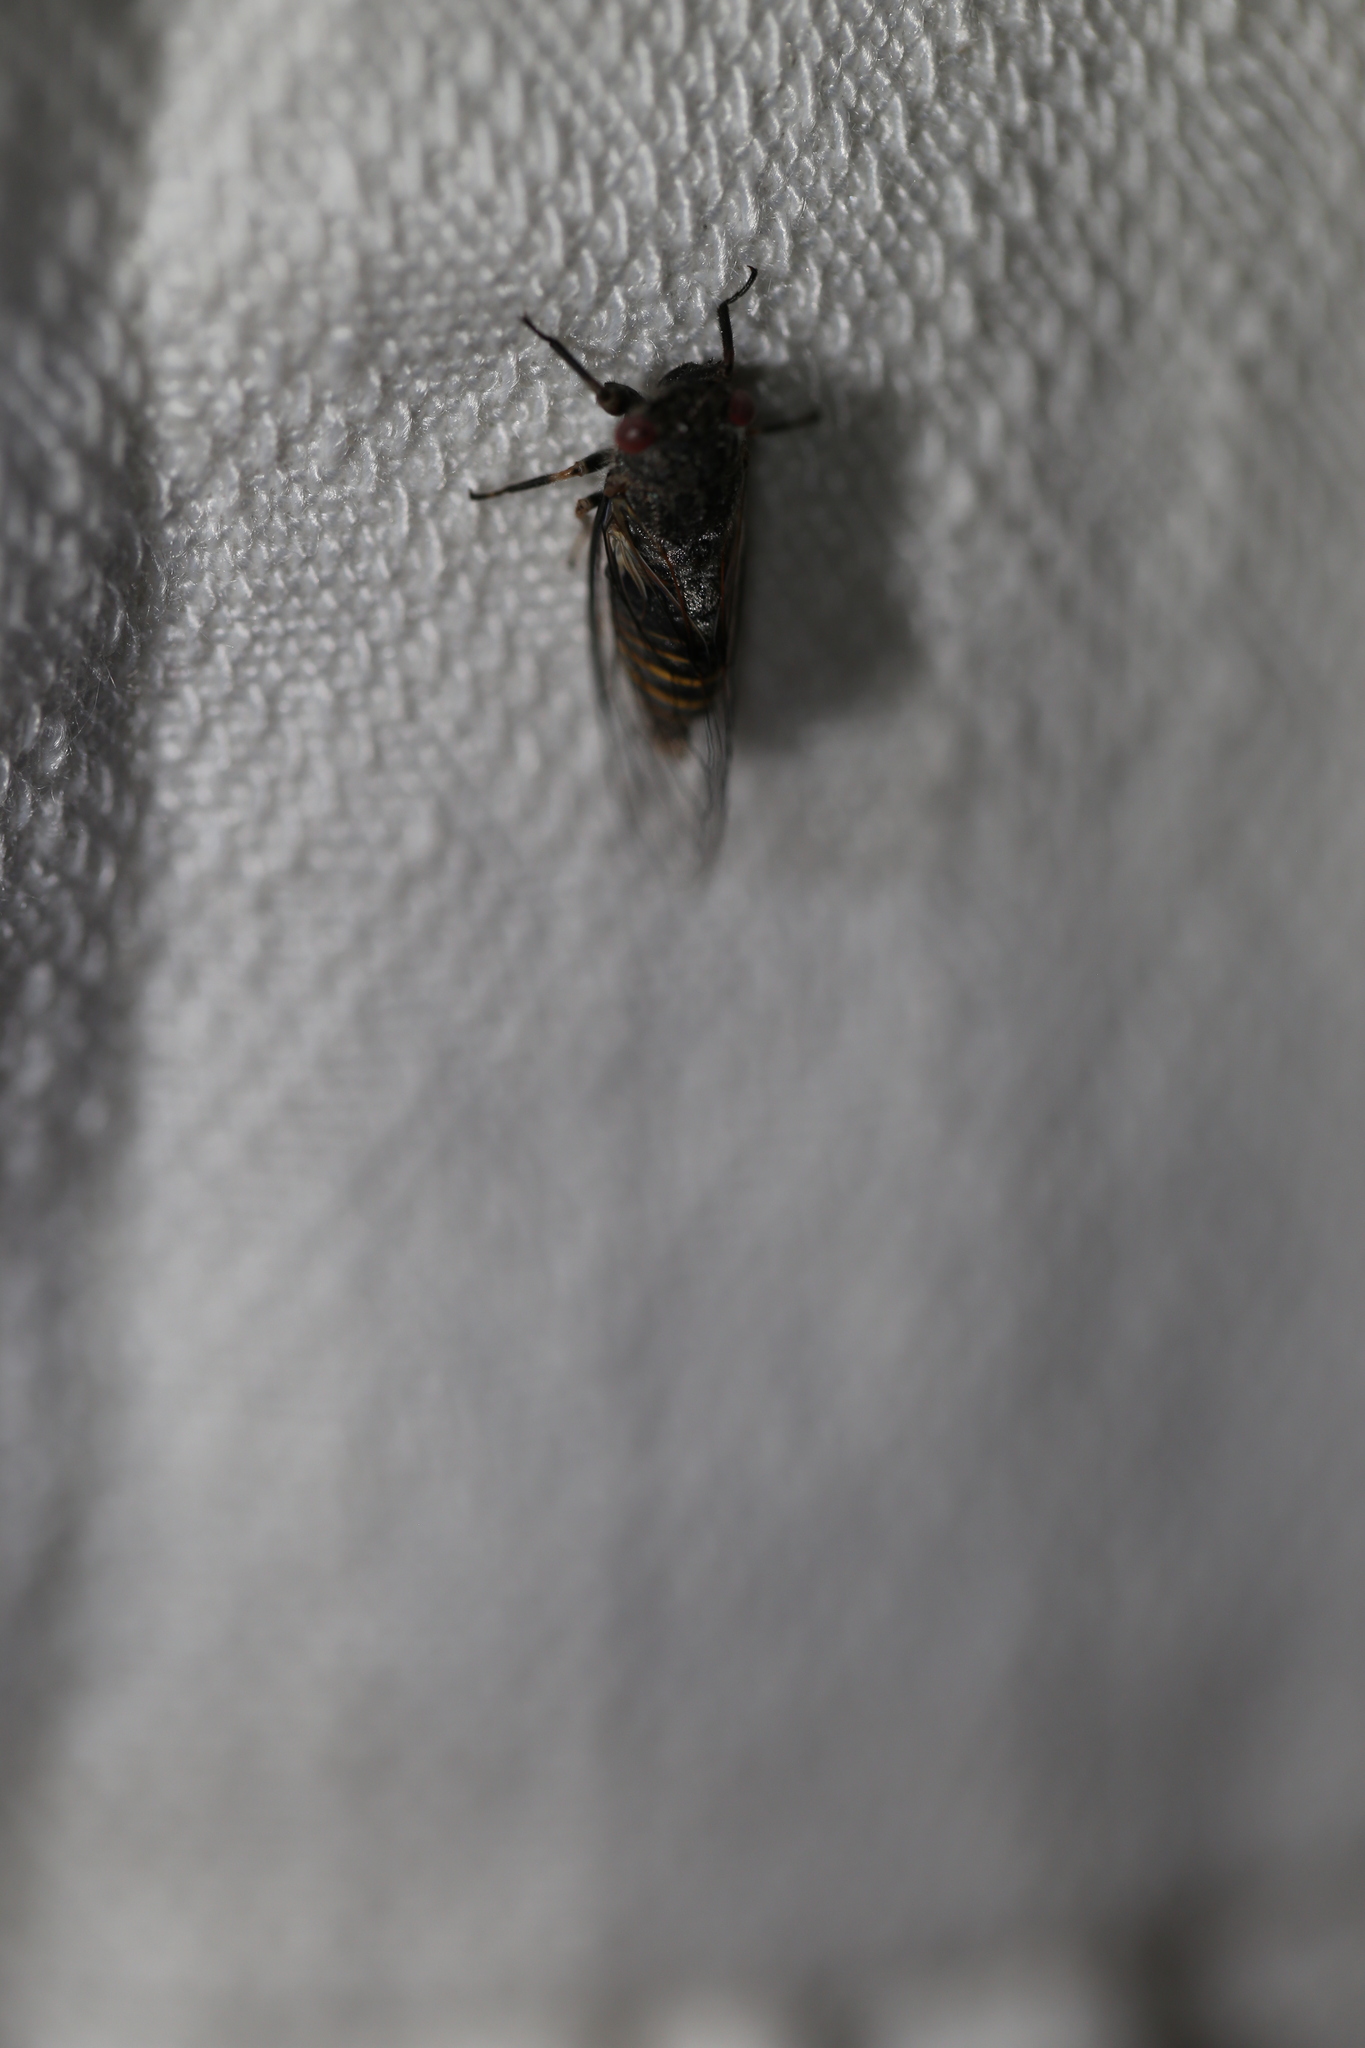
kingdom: Animalia
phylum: Arthropoda
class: Insecta
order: Hemiptera
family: Cicadidae
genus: Popplepsalta
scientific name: Popplepsalta annulata
